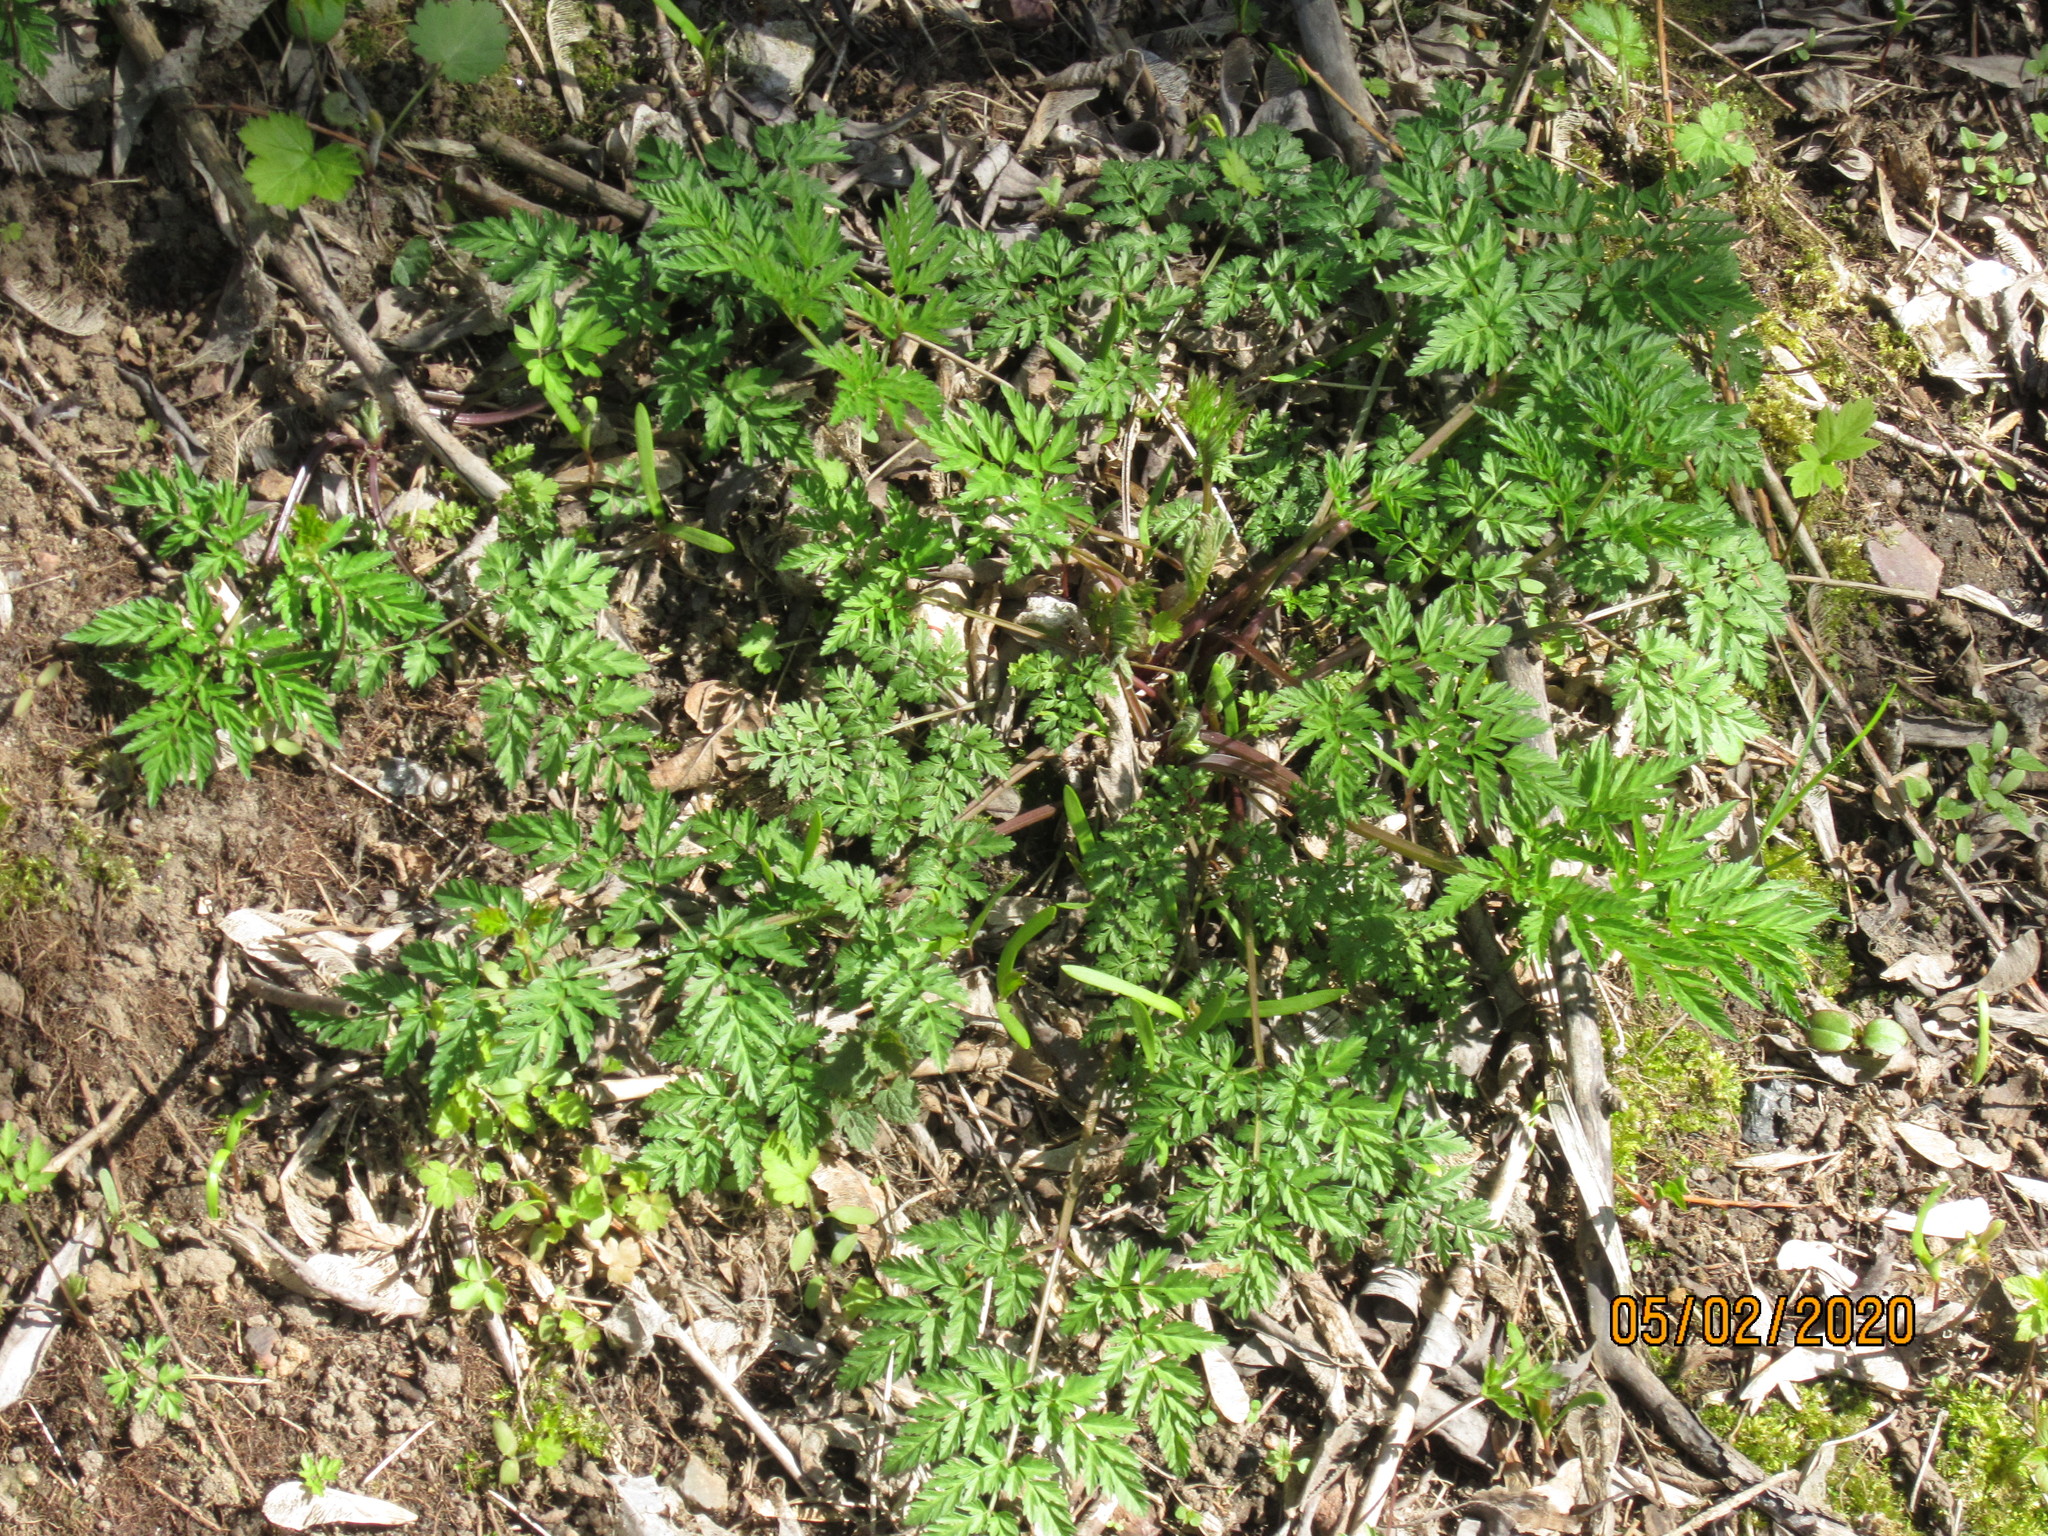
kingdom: Plantae
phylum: Tracheophyta
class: Magnoliopsida
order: Apiales
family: Apiaceae
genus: Anthriscus
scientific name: Anthriscus sylvestris
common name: Cow parsley
